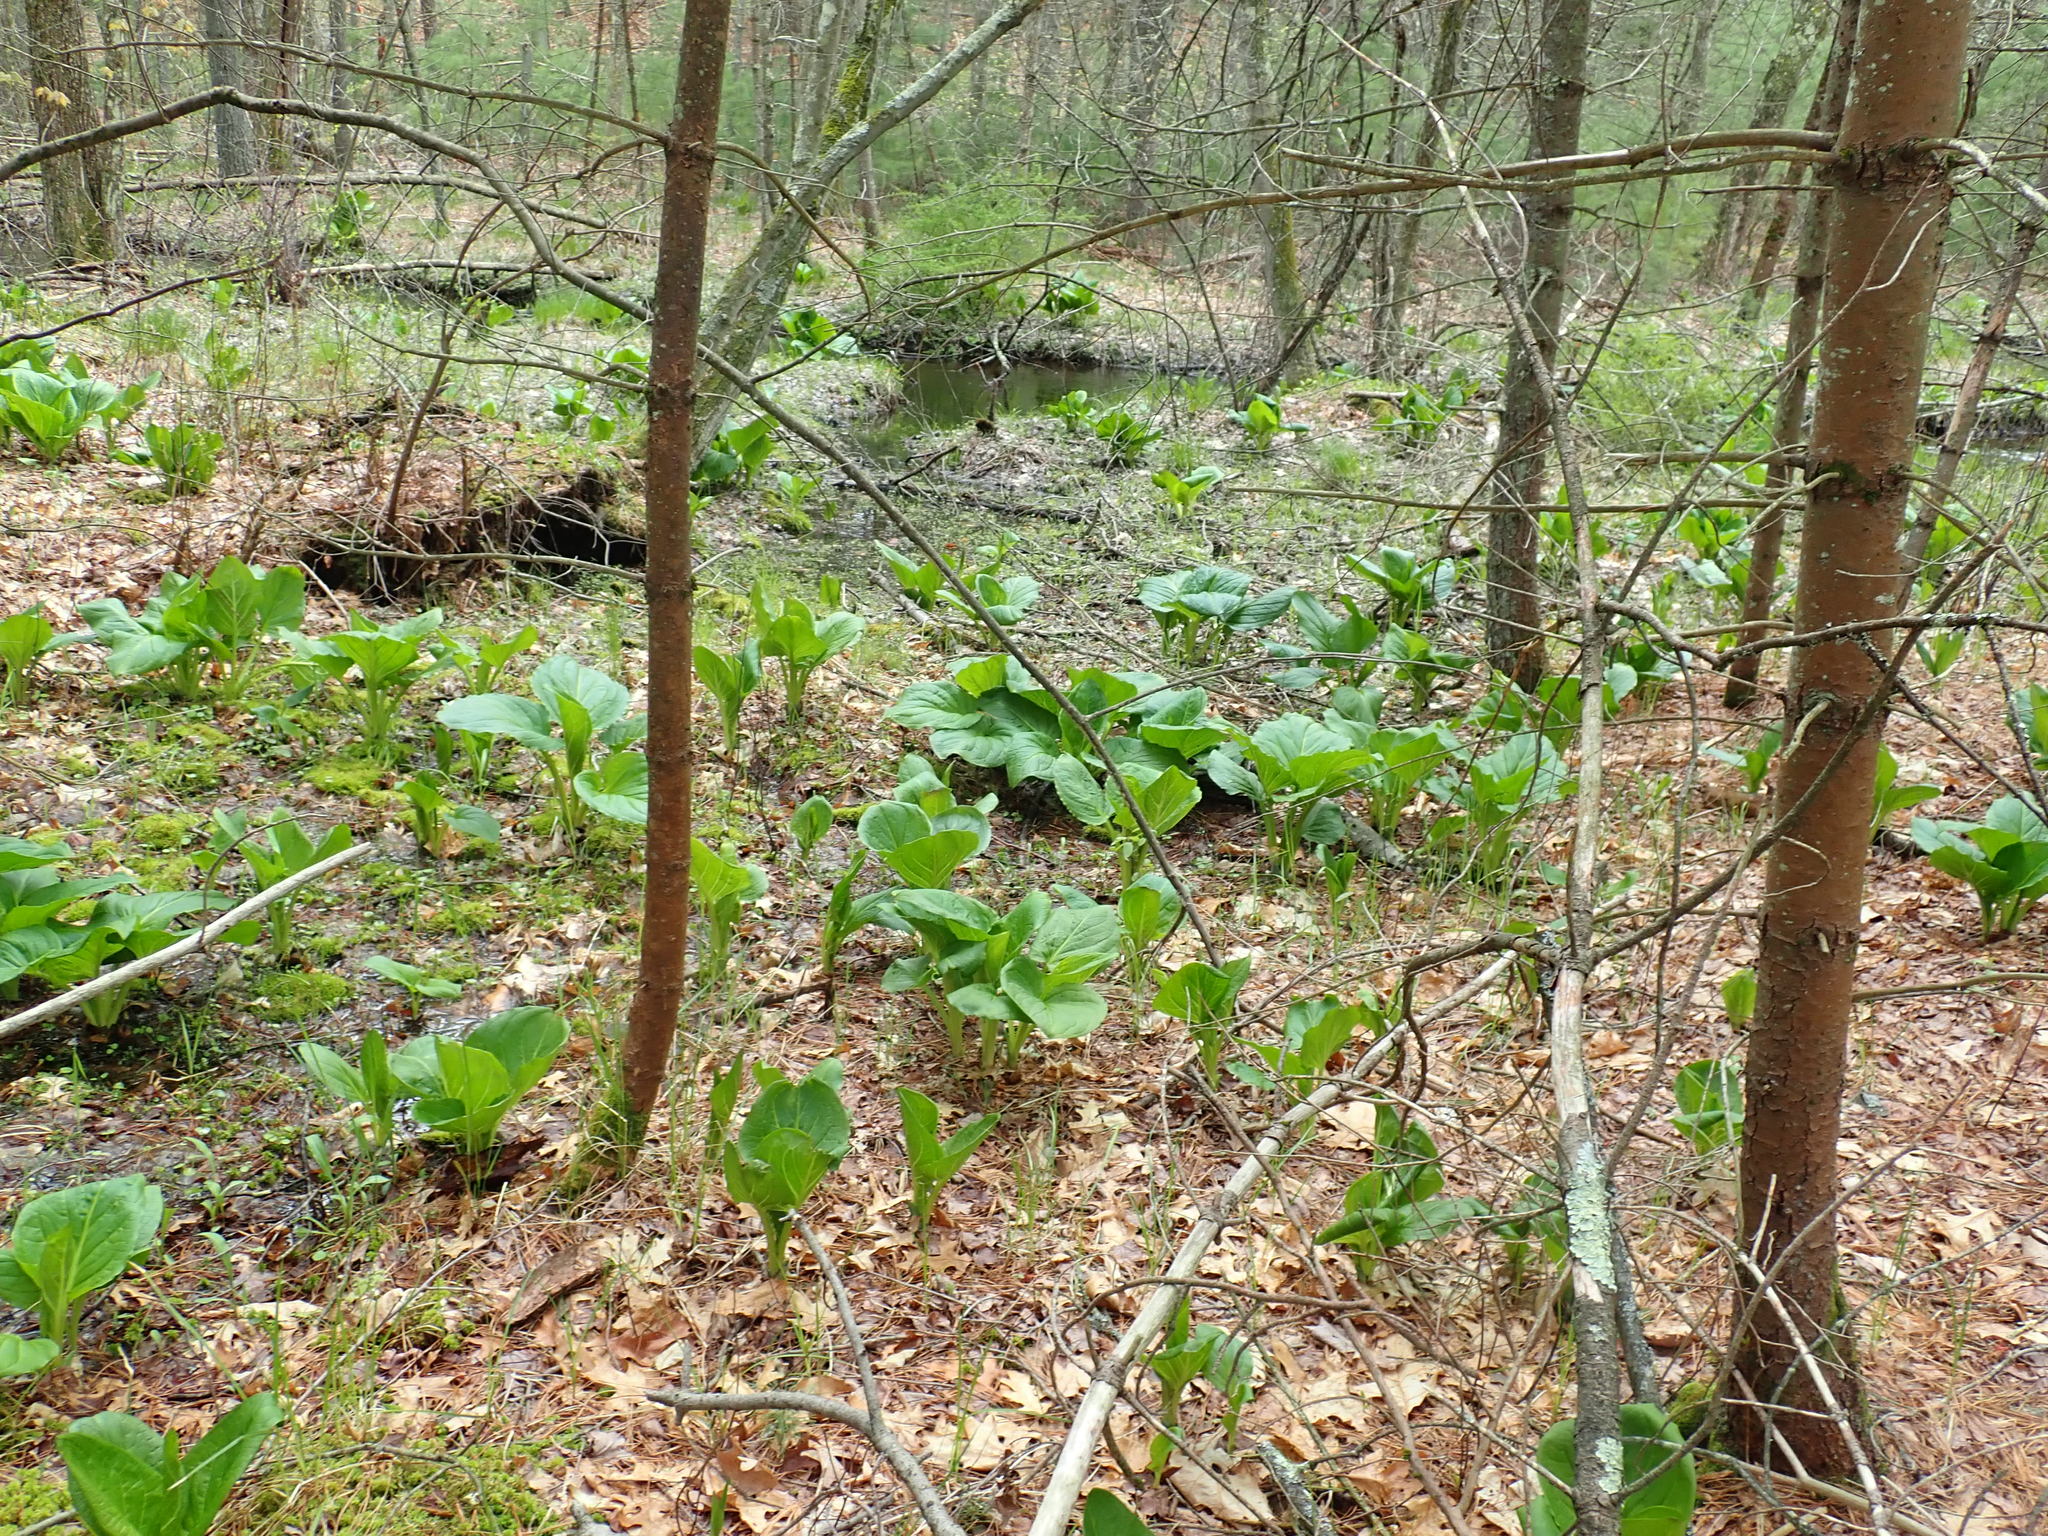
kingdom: Plantae
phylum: Tracheophyta
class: Liliopsida
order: Alismatales
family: Araceae
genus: Symplocarpus
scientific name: Symplocarpus foetidus
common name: Eastern skunk cabbage
